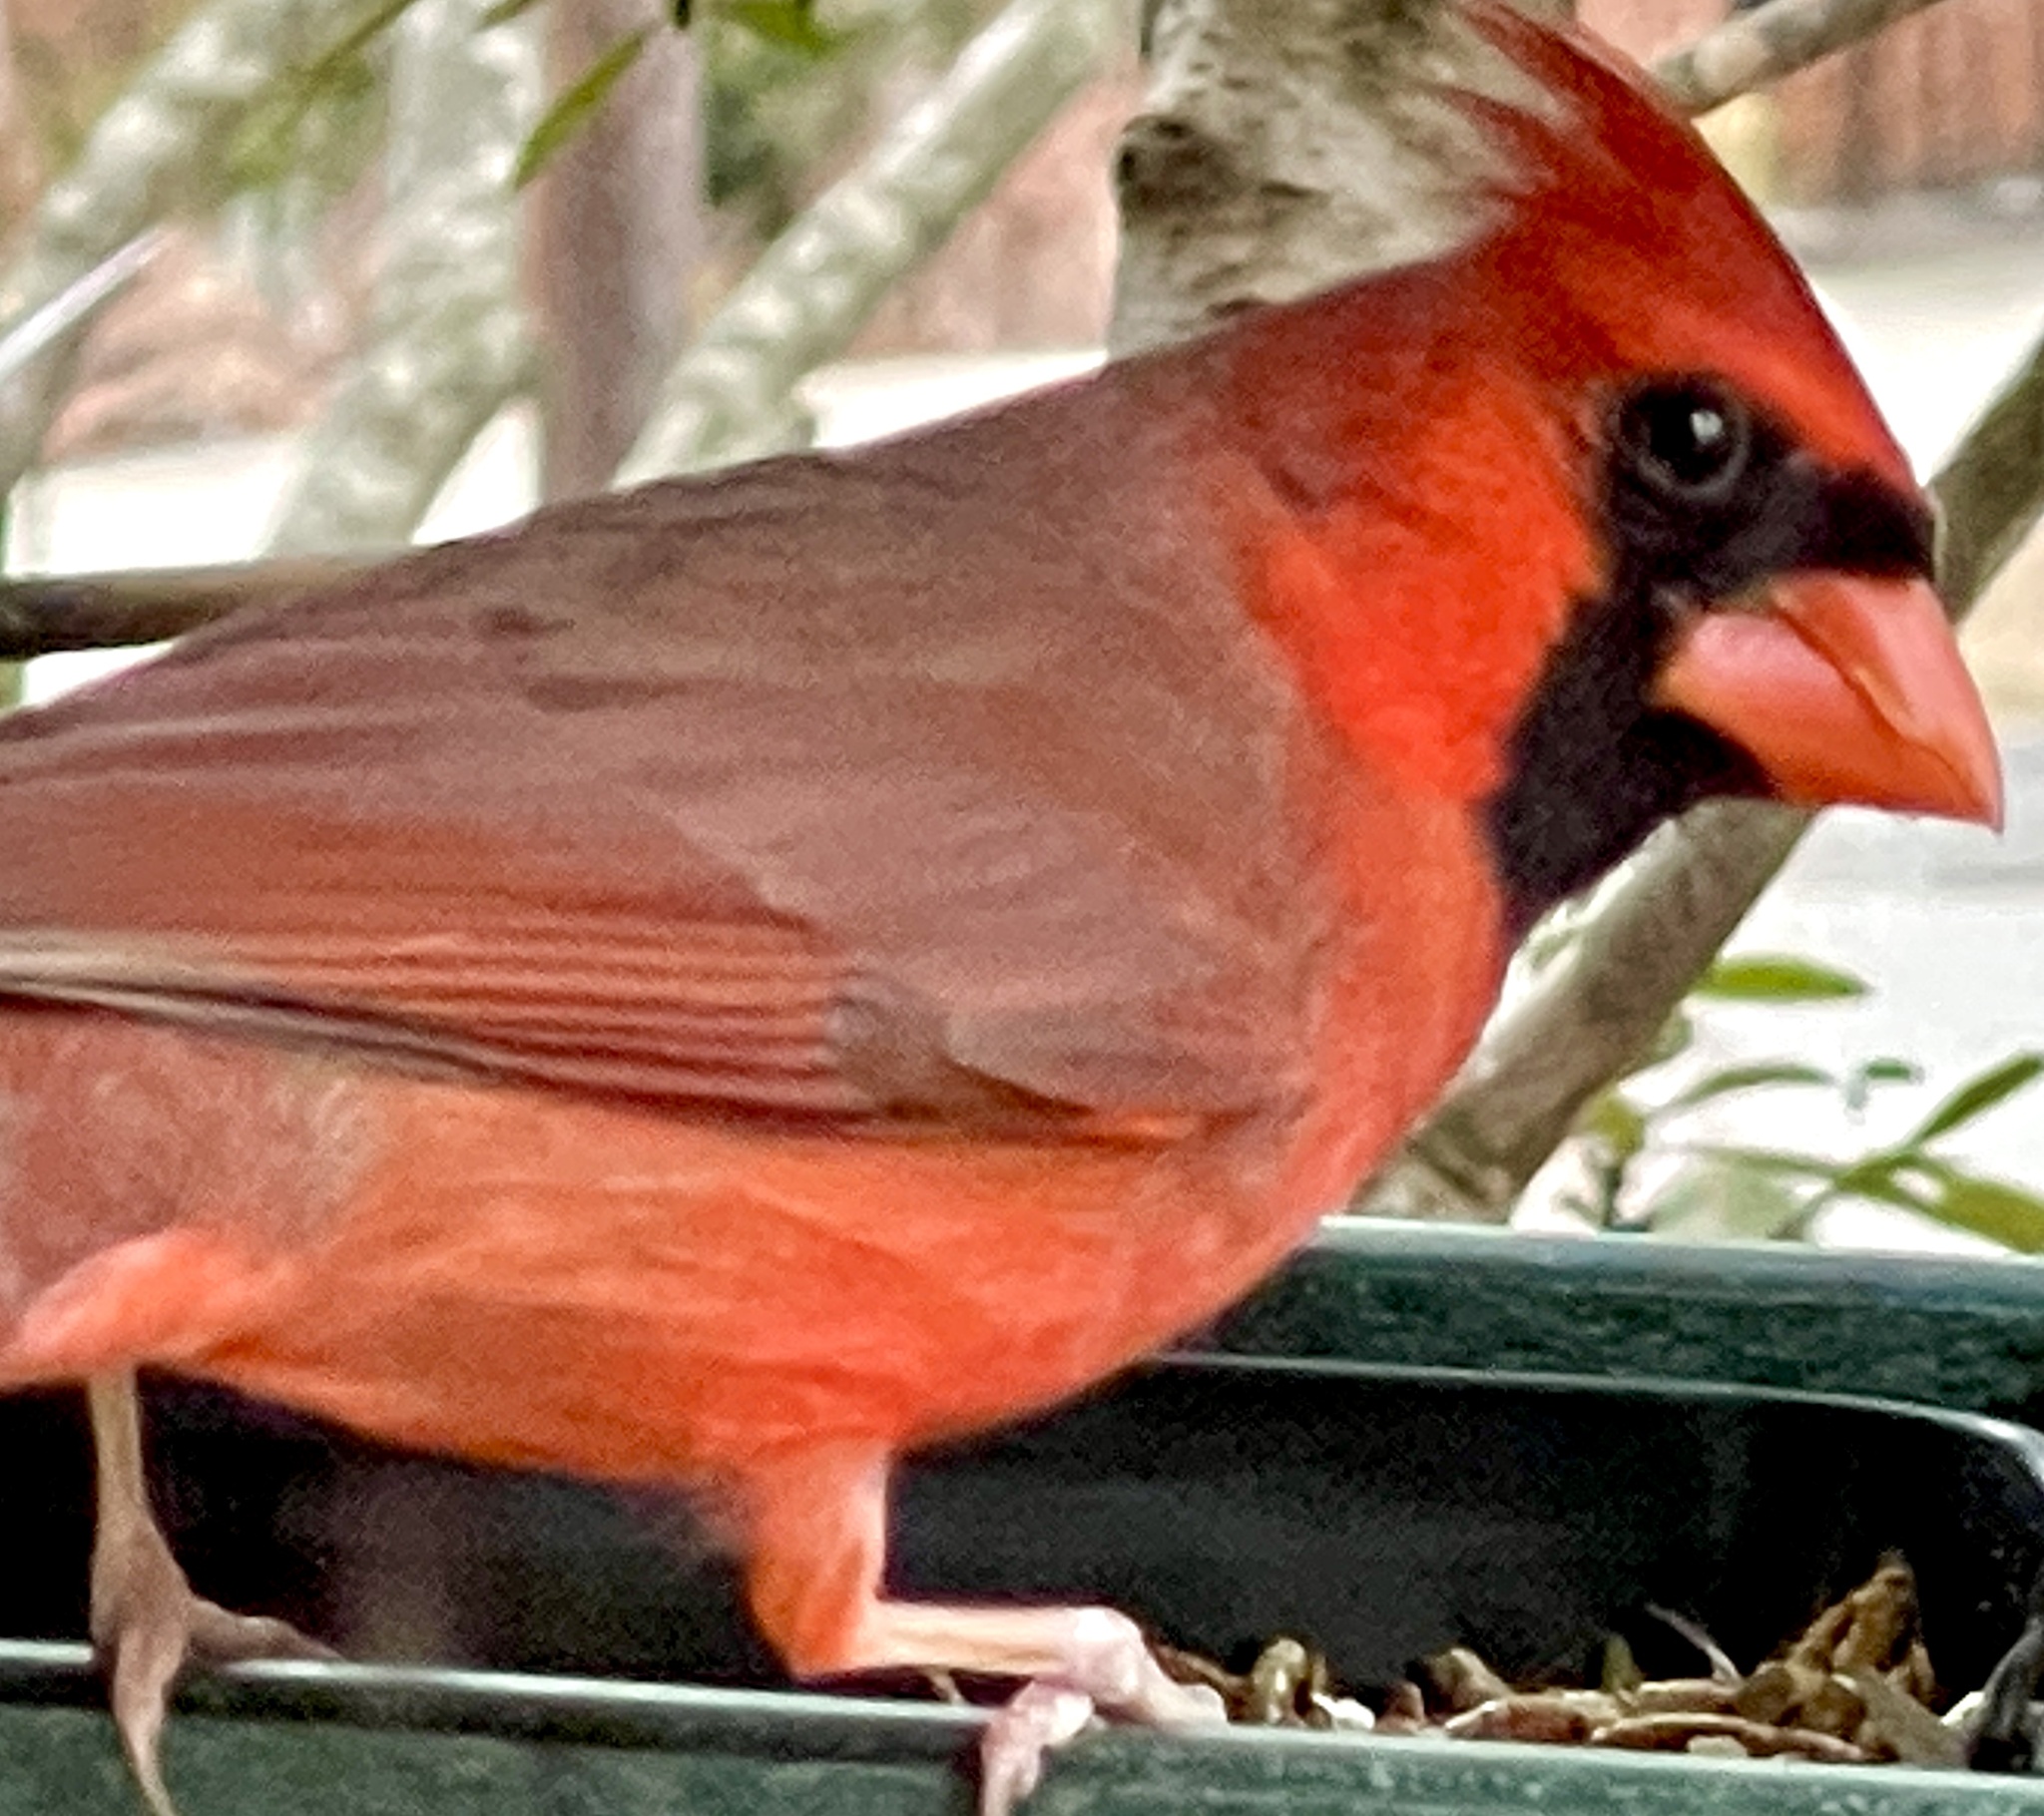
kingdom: Animalia
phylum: Chordata
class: Aves
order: Passeriformes
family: Cardinalidae
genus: Cardinalis
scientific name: Cardinalis cardinalis
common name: Northern cardinal
